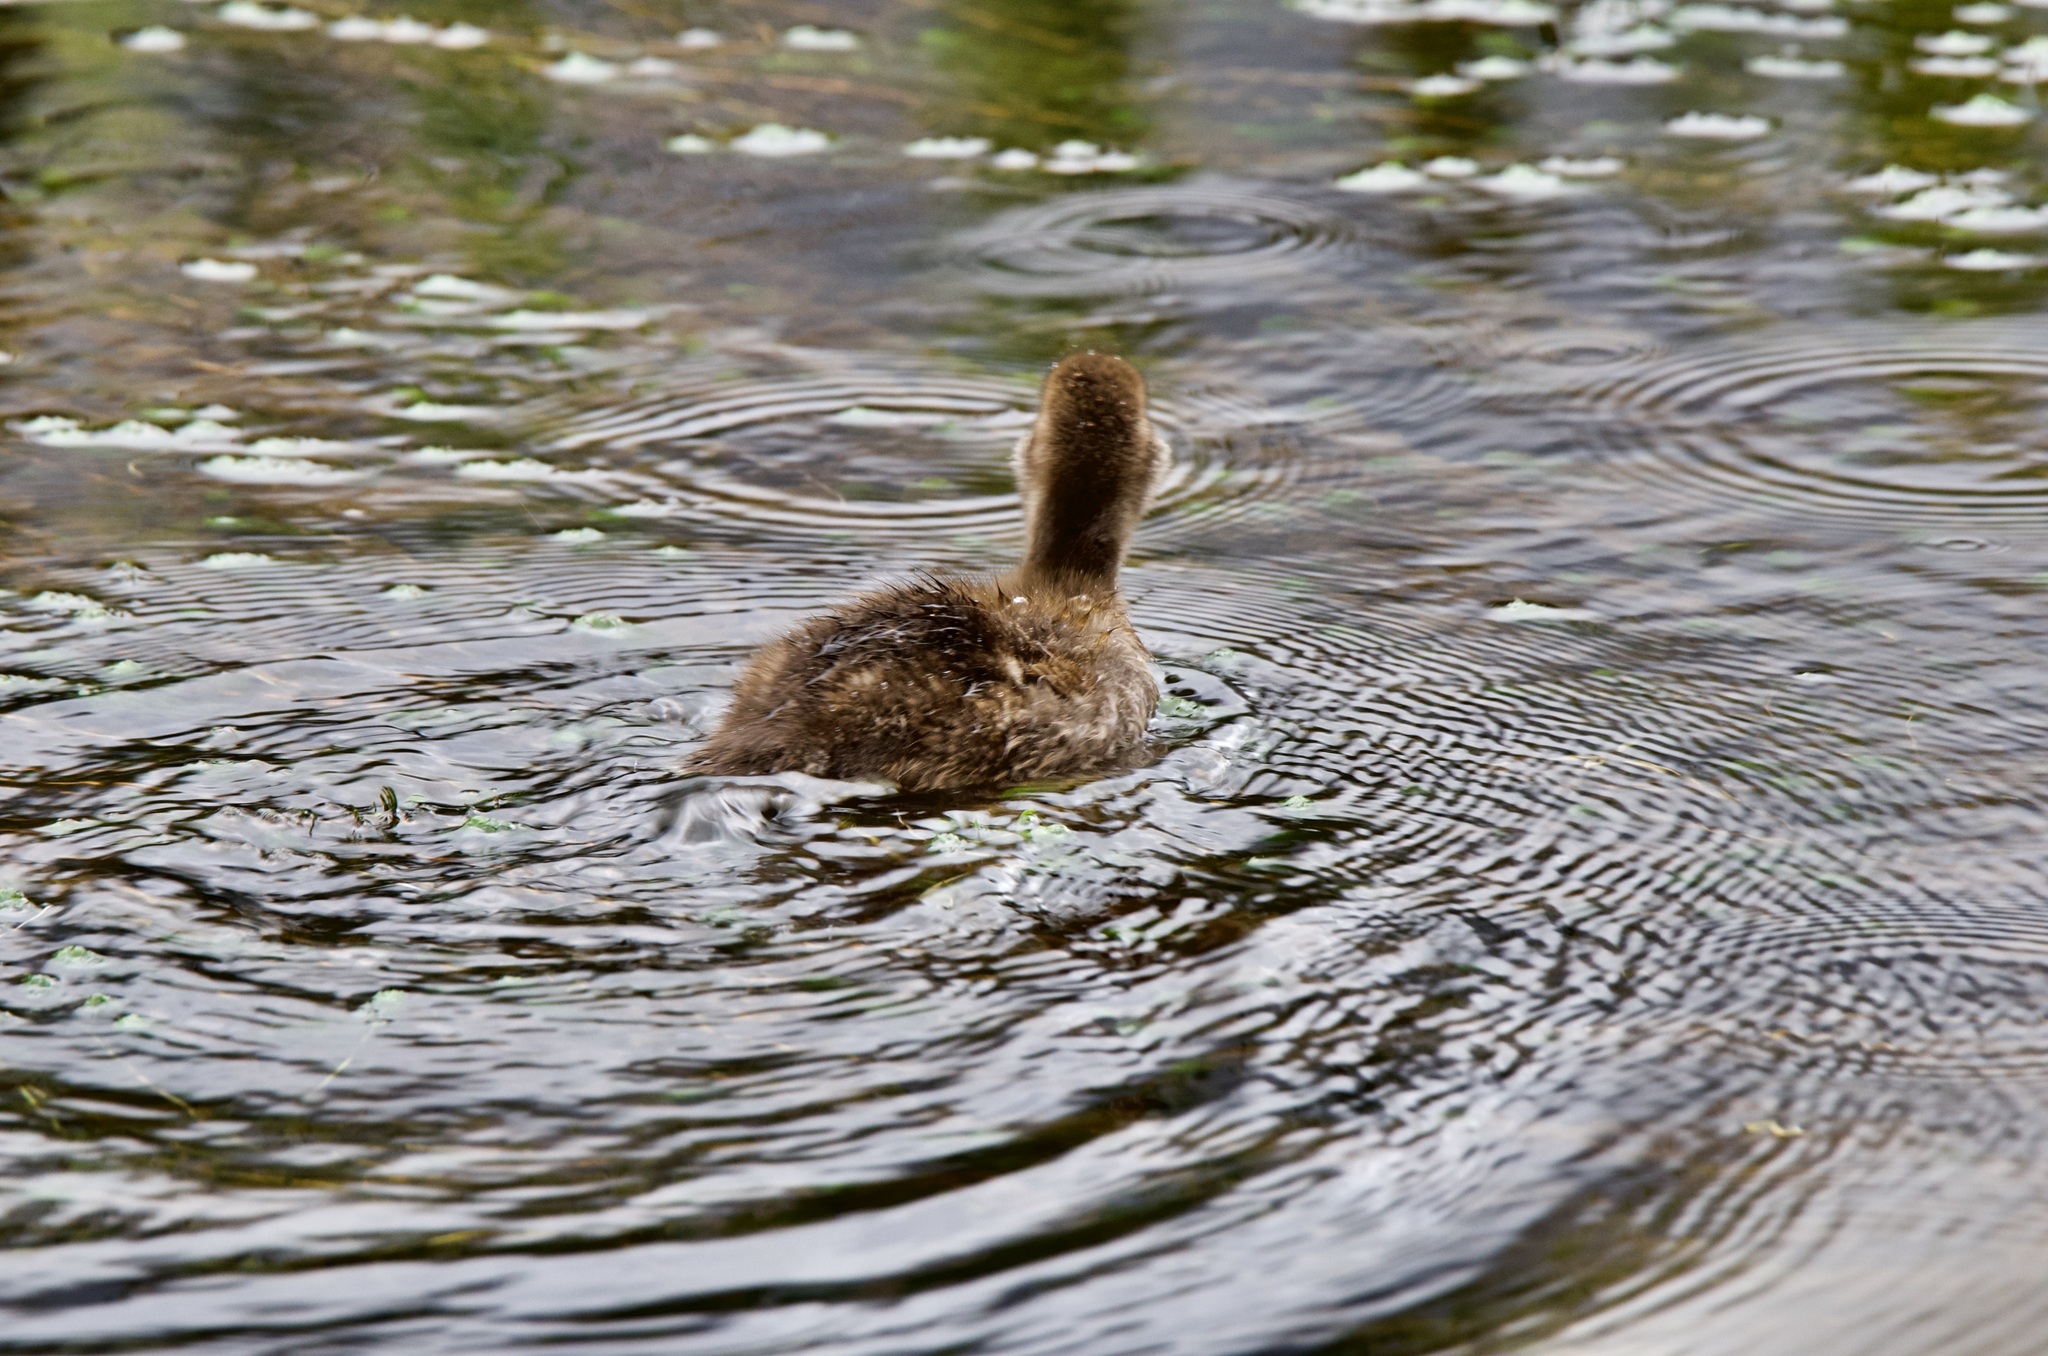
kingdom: Animalia
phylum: Chordata
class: Aves
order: Anseriformes
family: Anatidae
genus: Aythya
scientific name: Aythya novaeseelandiae
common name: New zealand scaup
